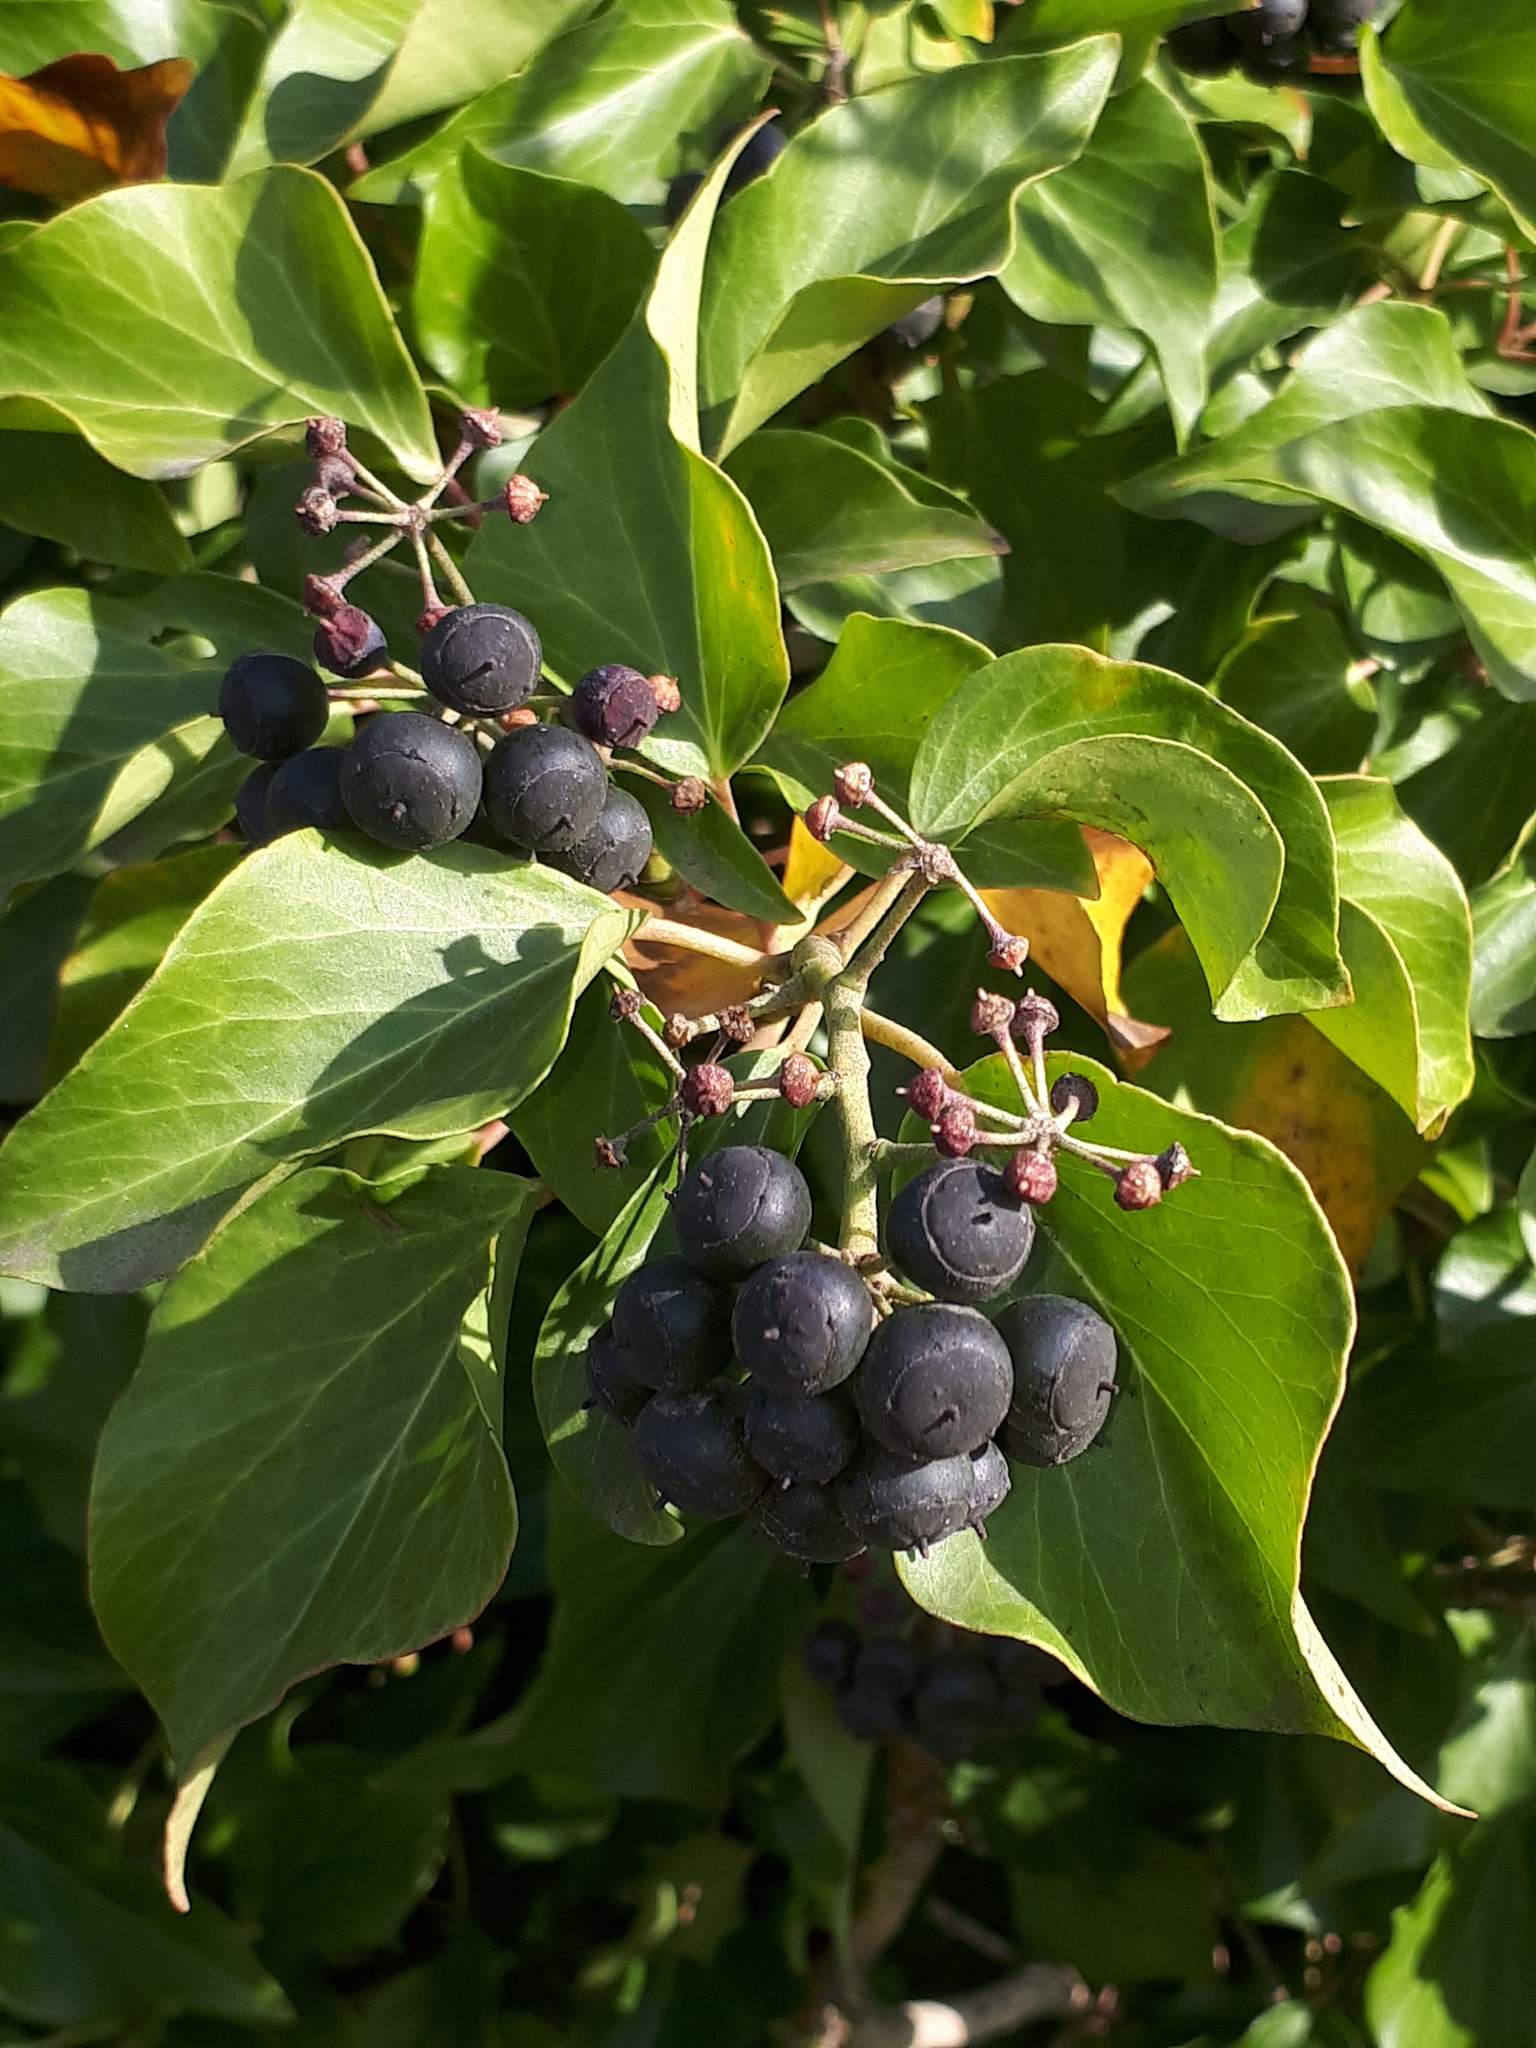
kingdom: Plantae
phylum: Tracheophyta
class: Magnoliopsida
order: Apiales
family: Araliaceae
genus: Hedera
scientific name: Hedera helix
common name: Ivy
